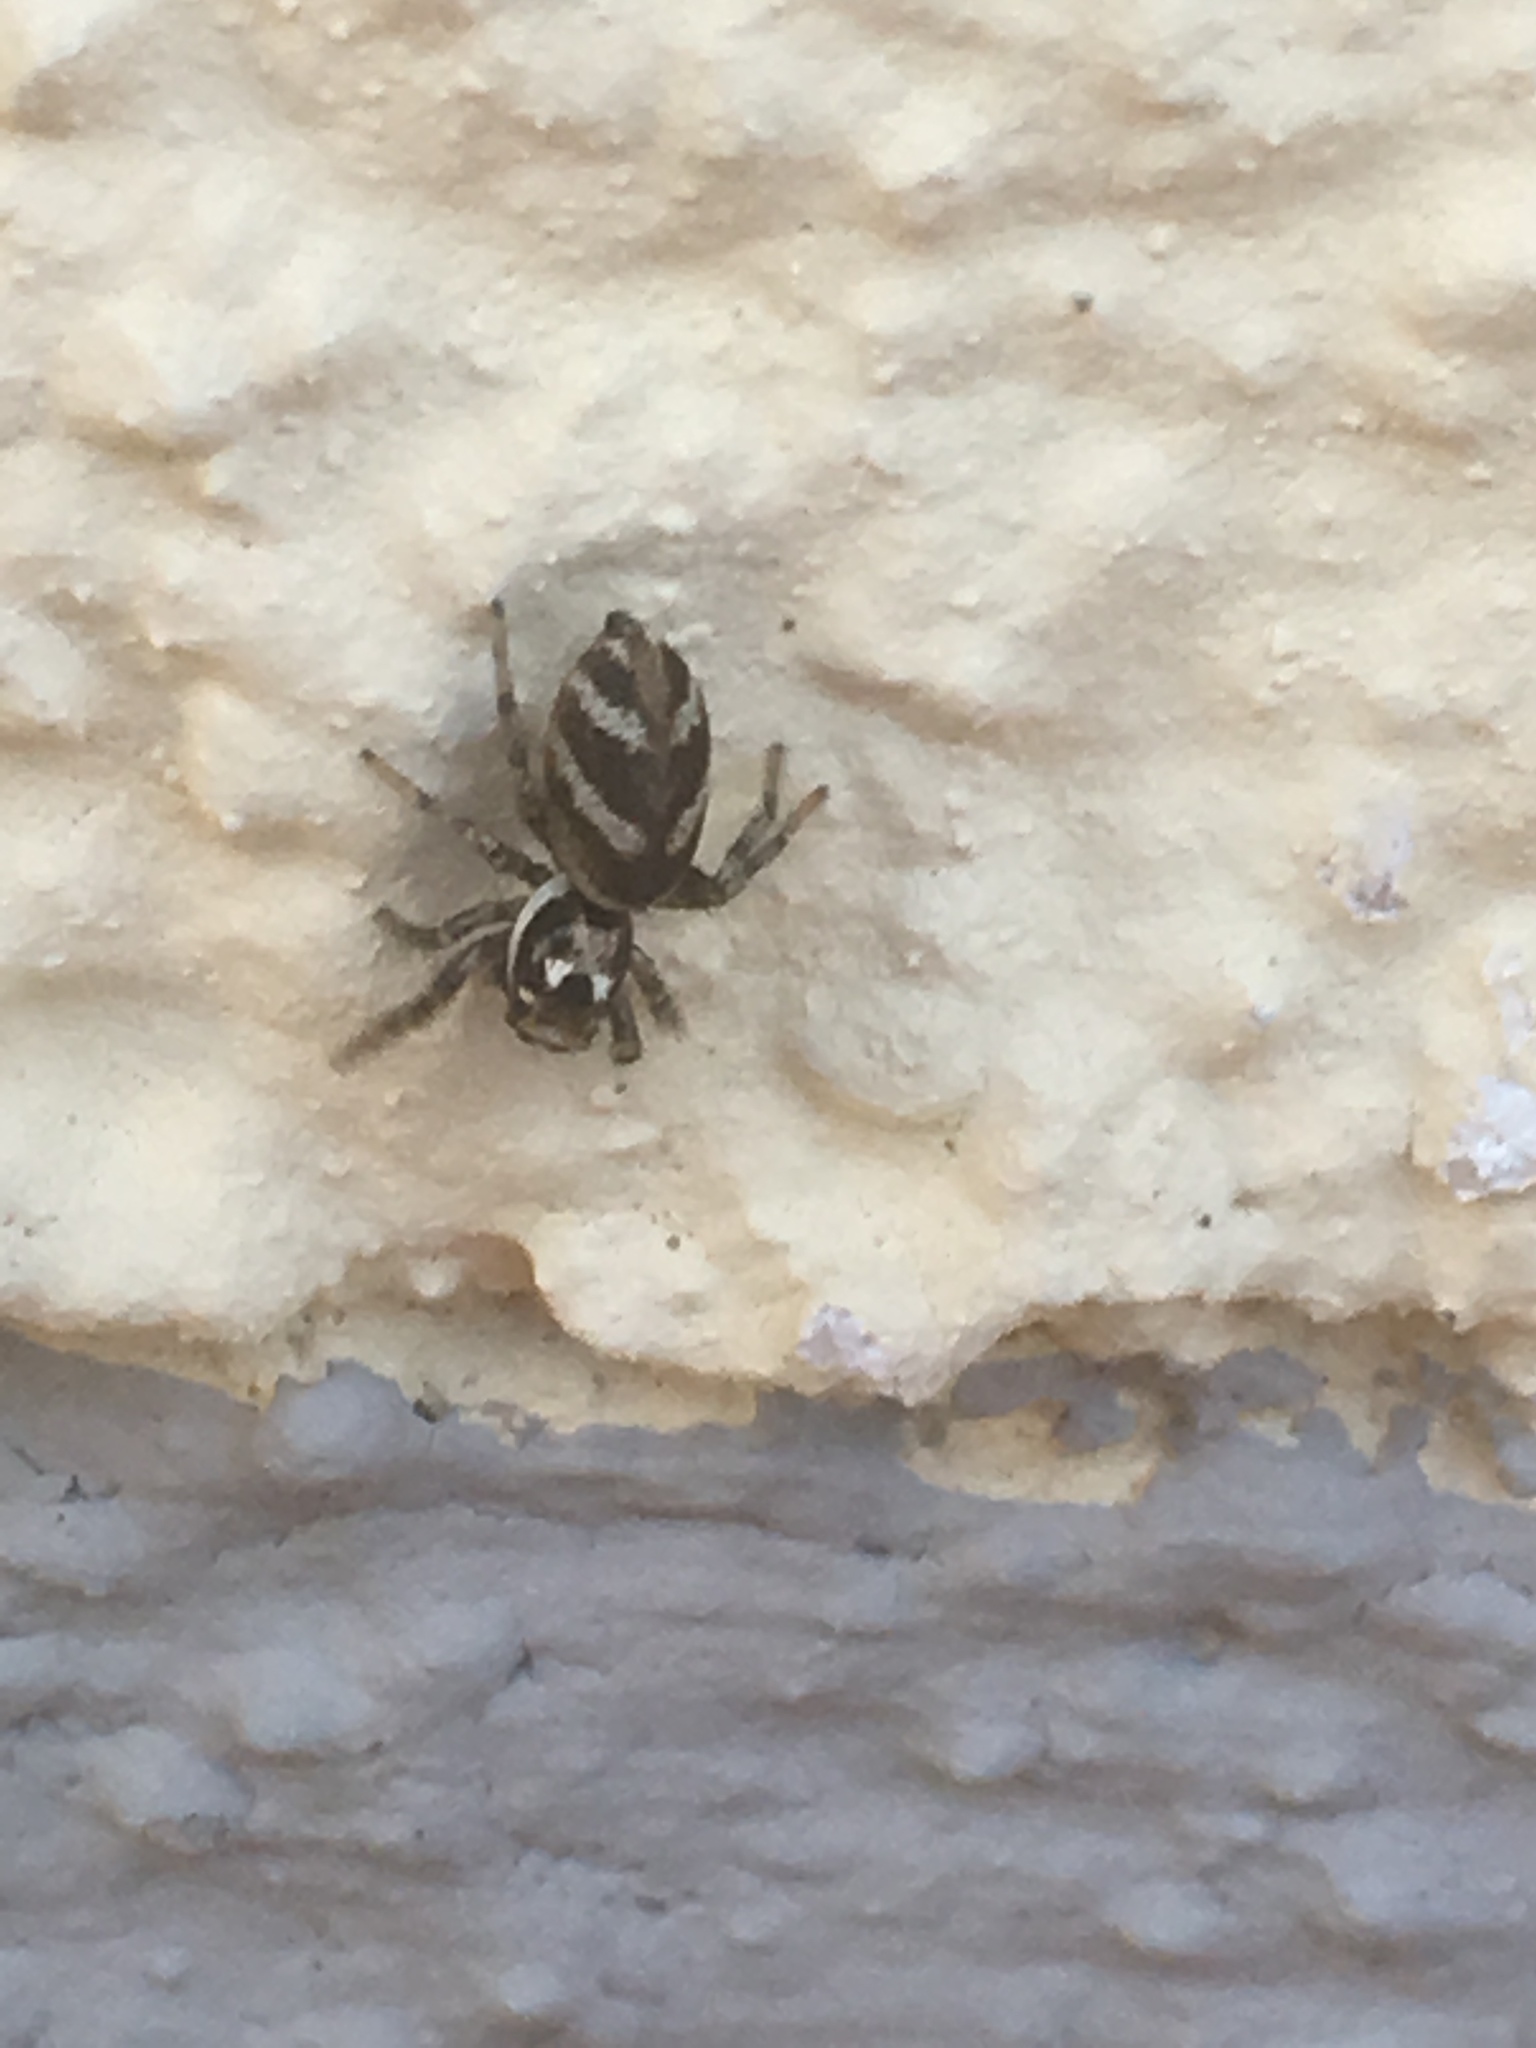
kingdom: Animalia
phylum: Arthropoda
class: Arachnida
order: Araneae
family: Salticidae
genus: Salticus
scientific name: Salticus scenicus
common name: Zebra jumper
